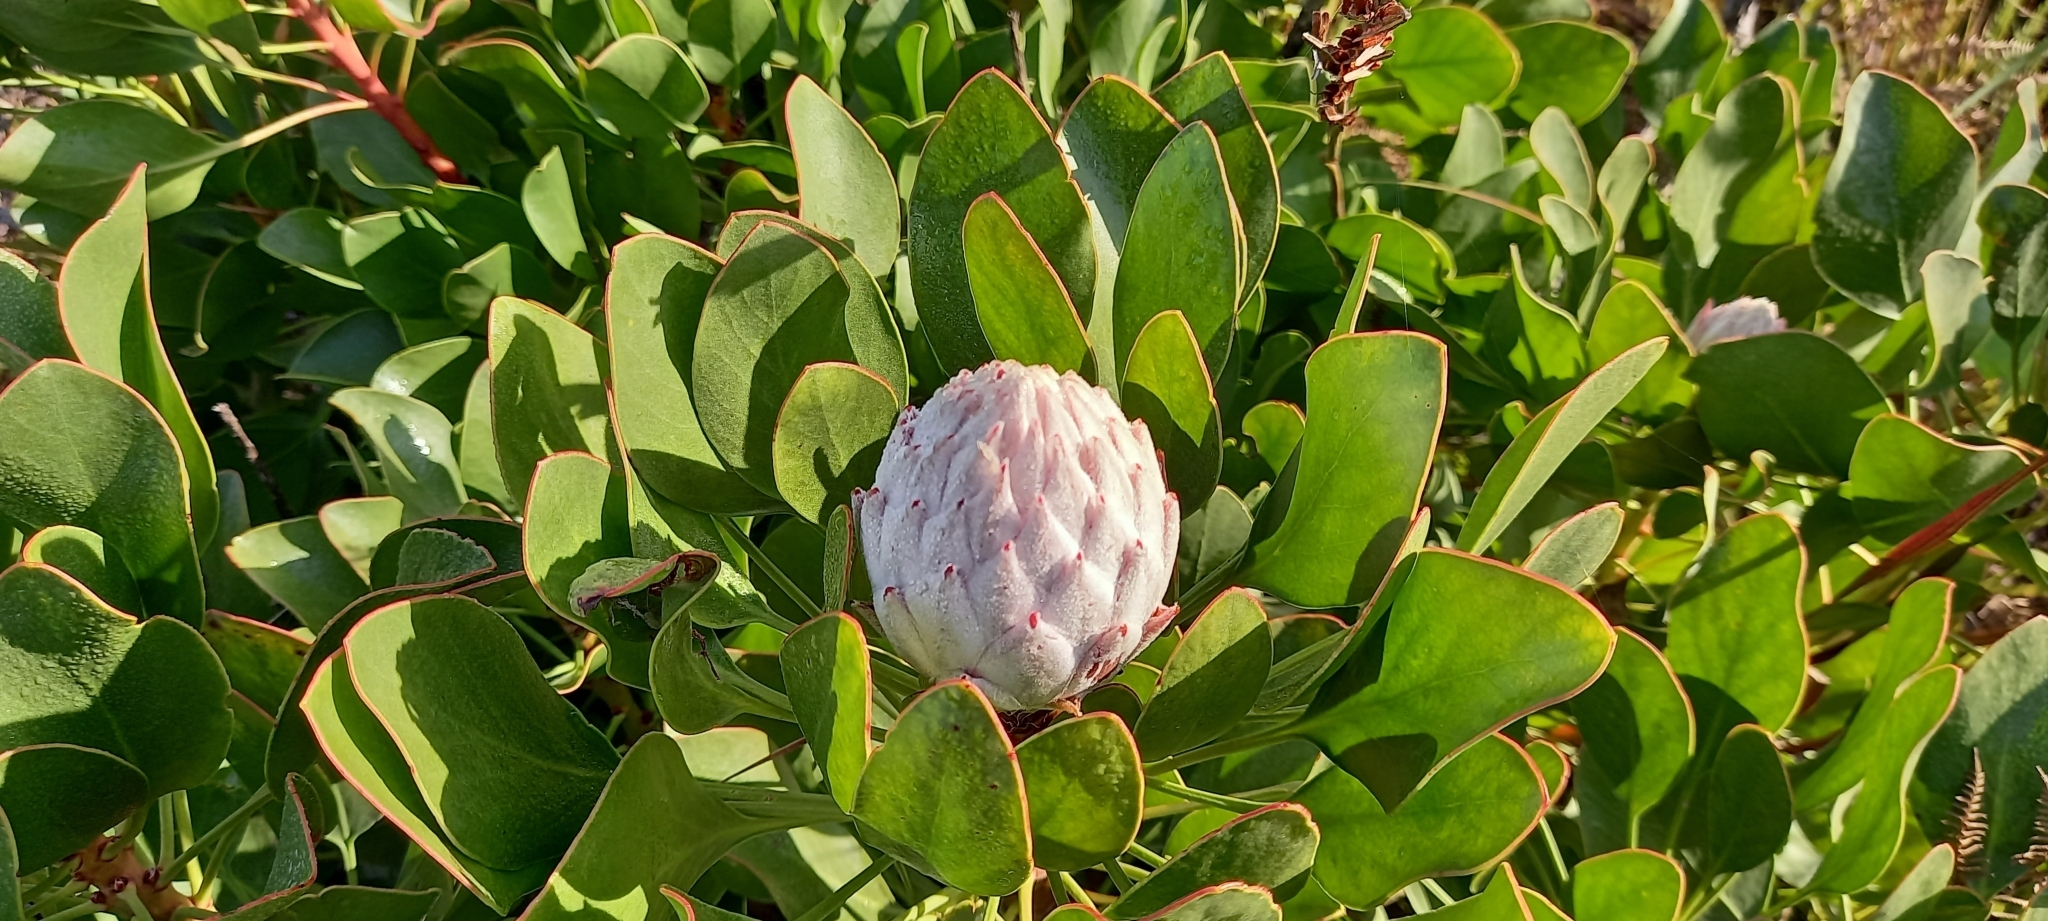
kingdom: Plantae
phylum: Tracheophyta
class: Magnoliopsida
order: Proteales
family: Proteaceae
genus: Protea
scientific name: Protea cynaroides
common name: King protea
